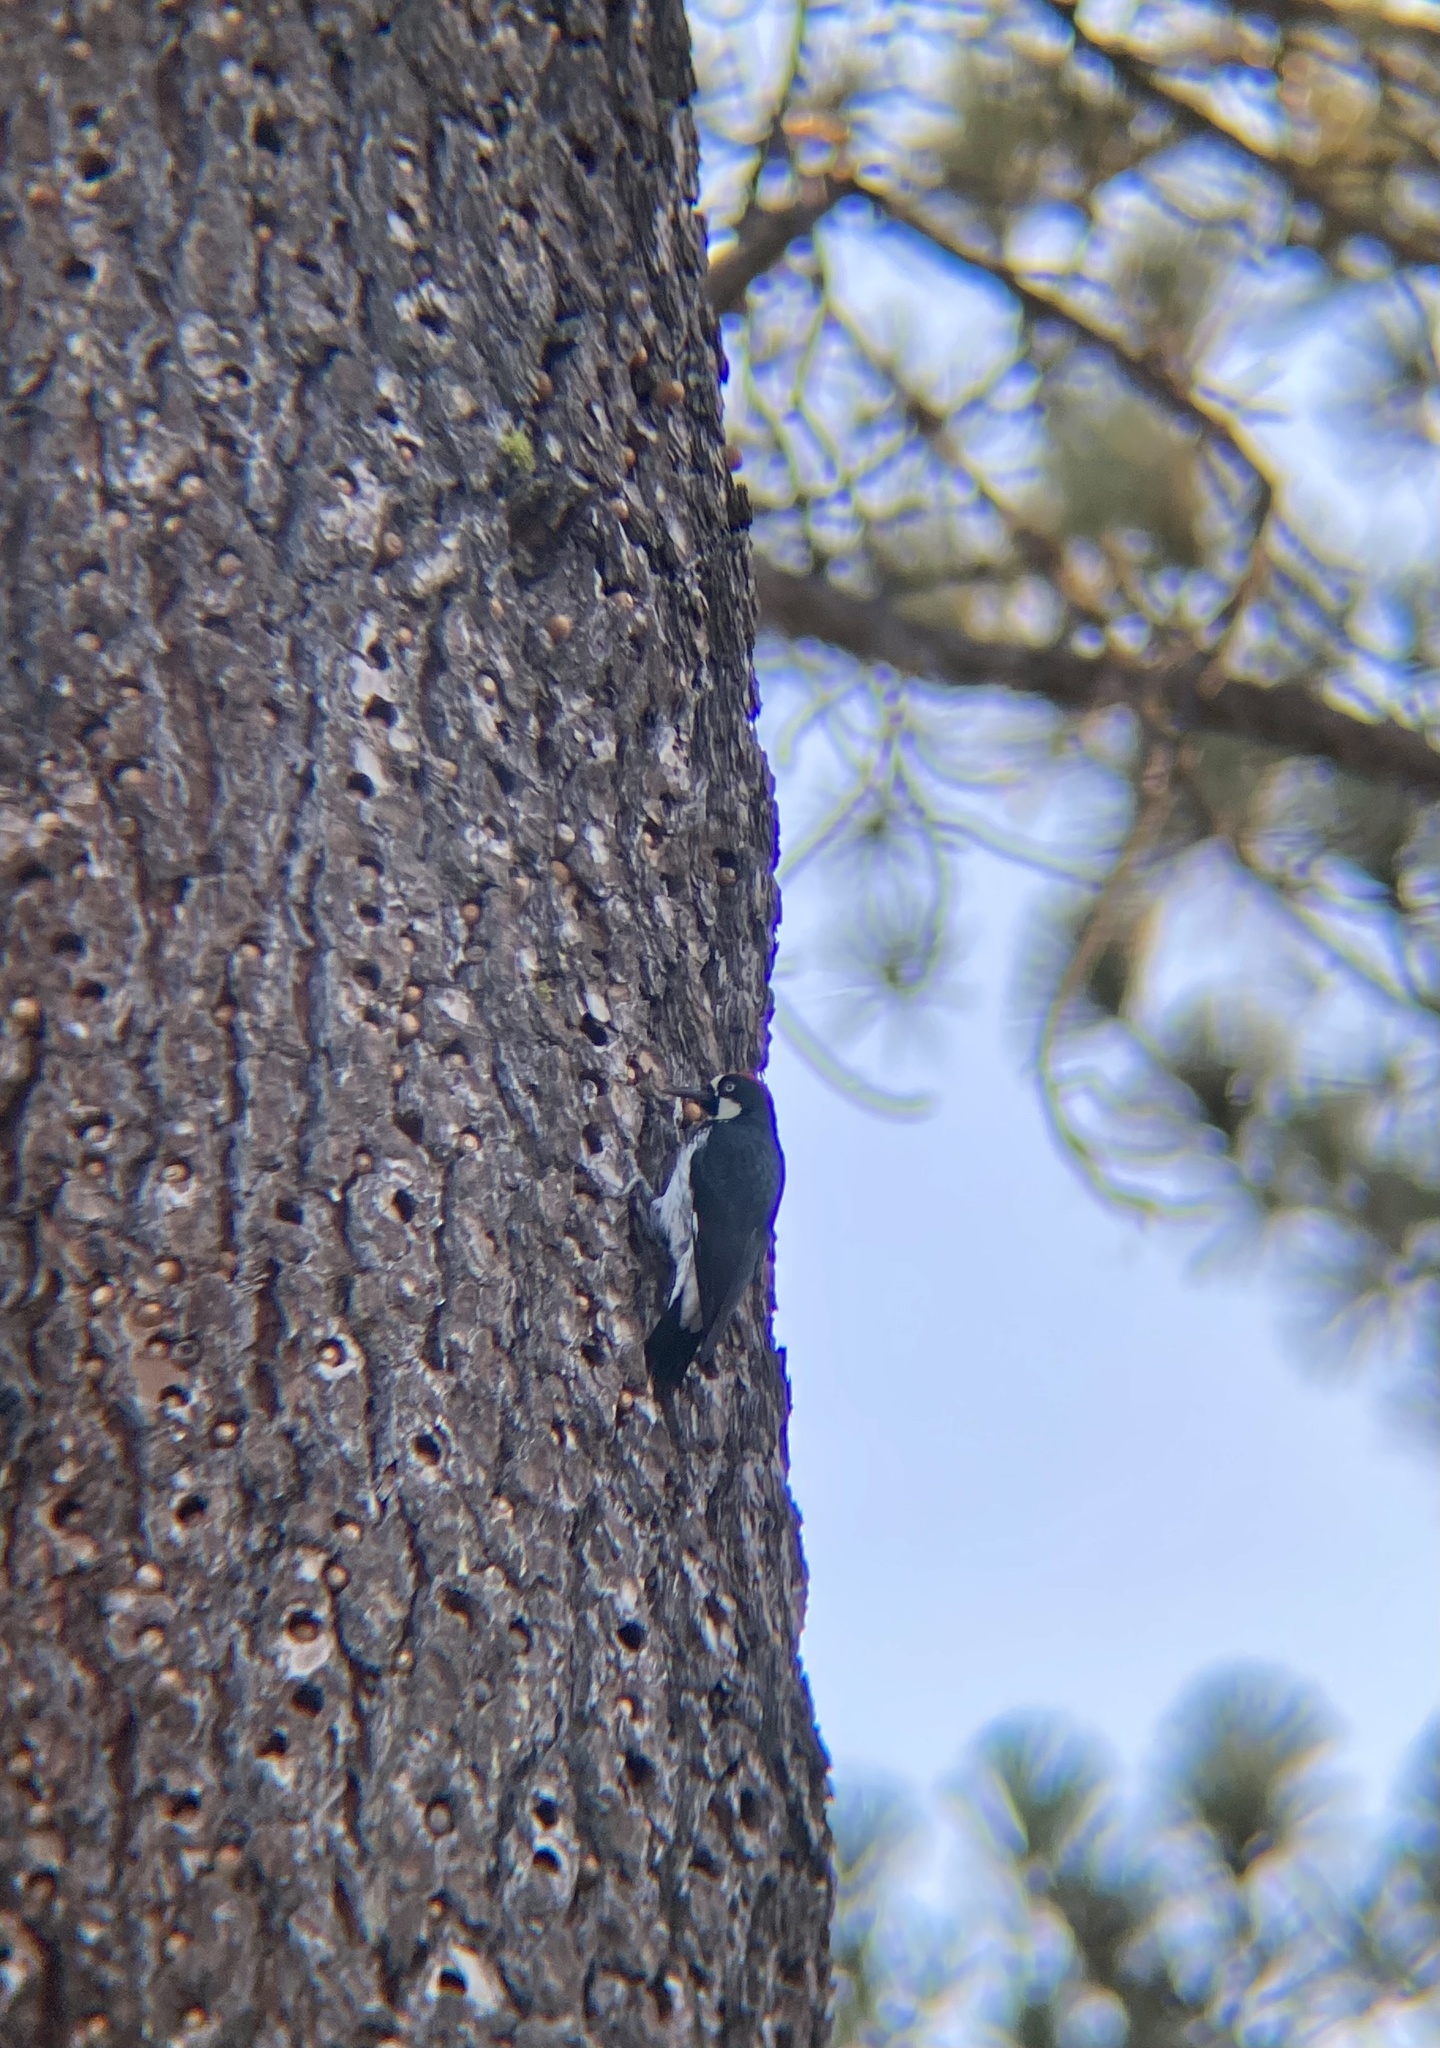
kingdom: Animalia
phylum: Chordata
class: Aves
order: Piciformes
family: Picidae
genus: Melanerpes
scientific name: Melanerpes formicivorus
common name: Acorn woodpecker
